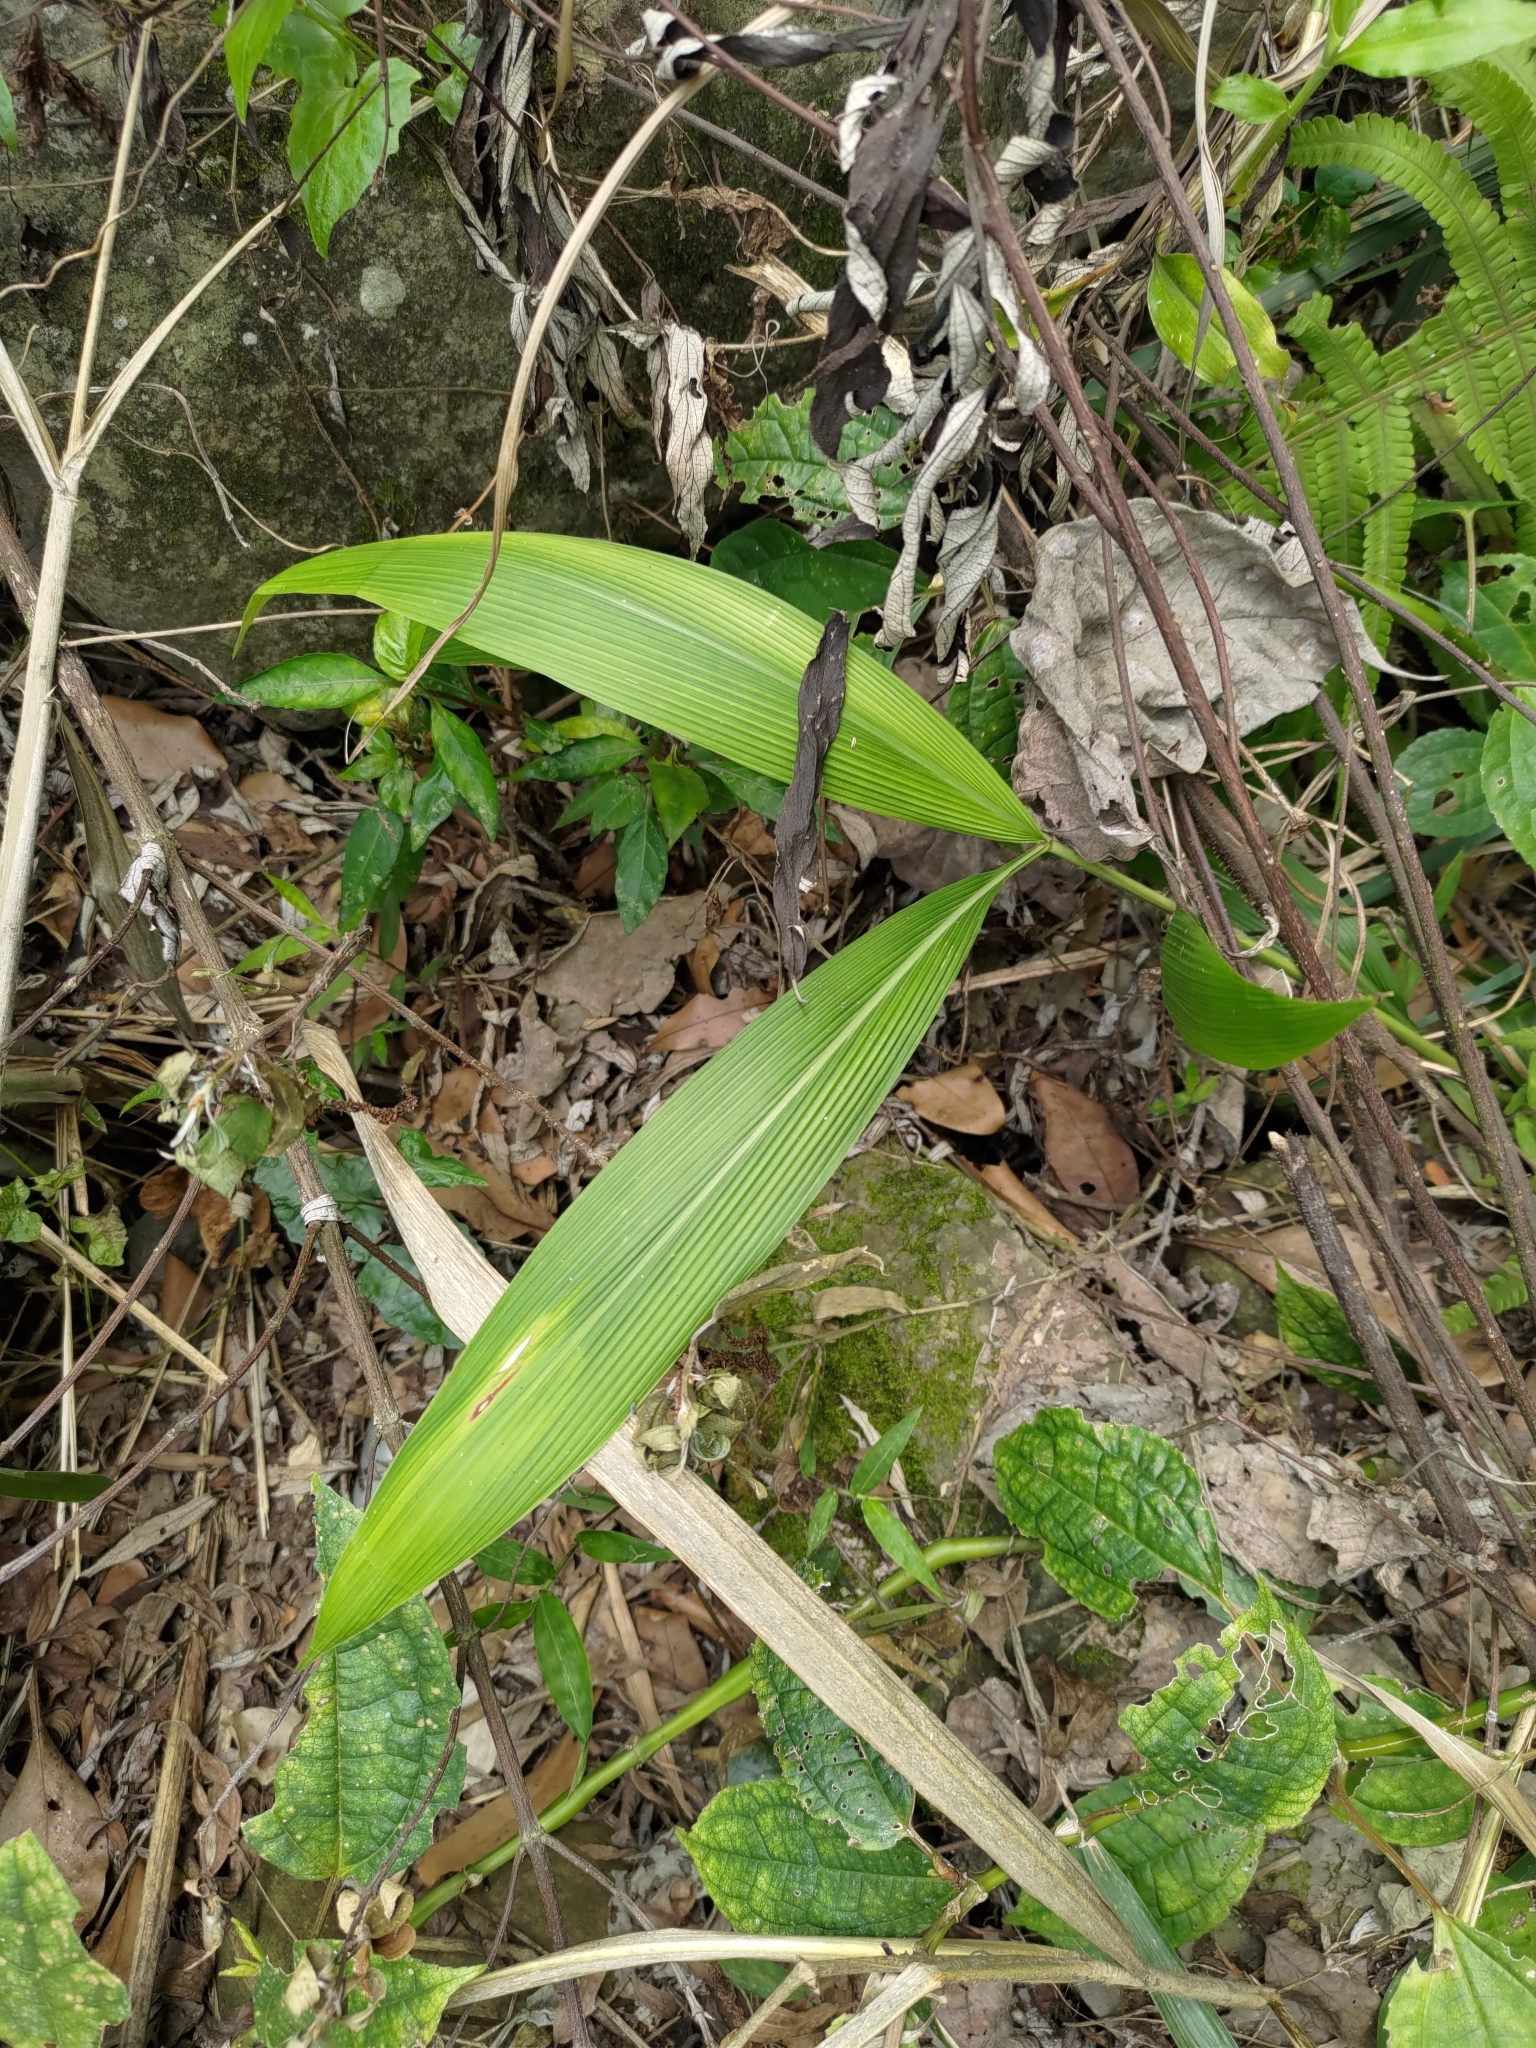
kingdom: Plantae
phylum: Tracheophyta
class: Liliopsida
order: Poales
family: Poaceae
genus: Setaria
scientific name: Setaria palmifolia
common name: Broadleaved bristlegrass
